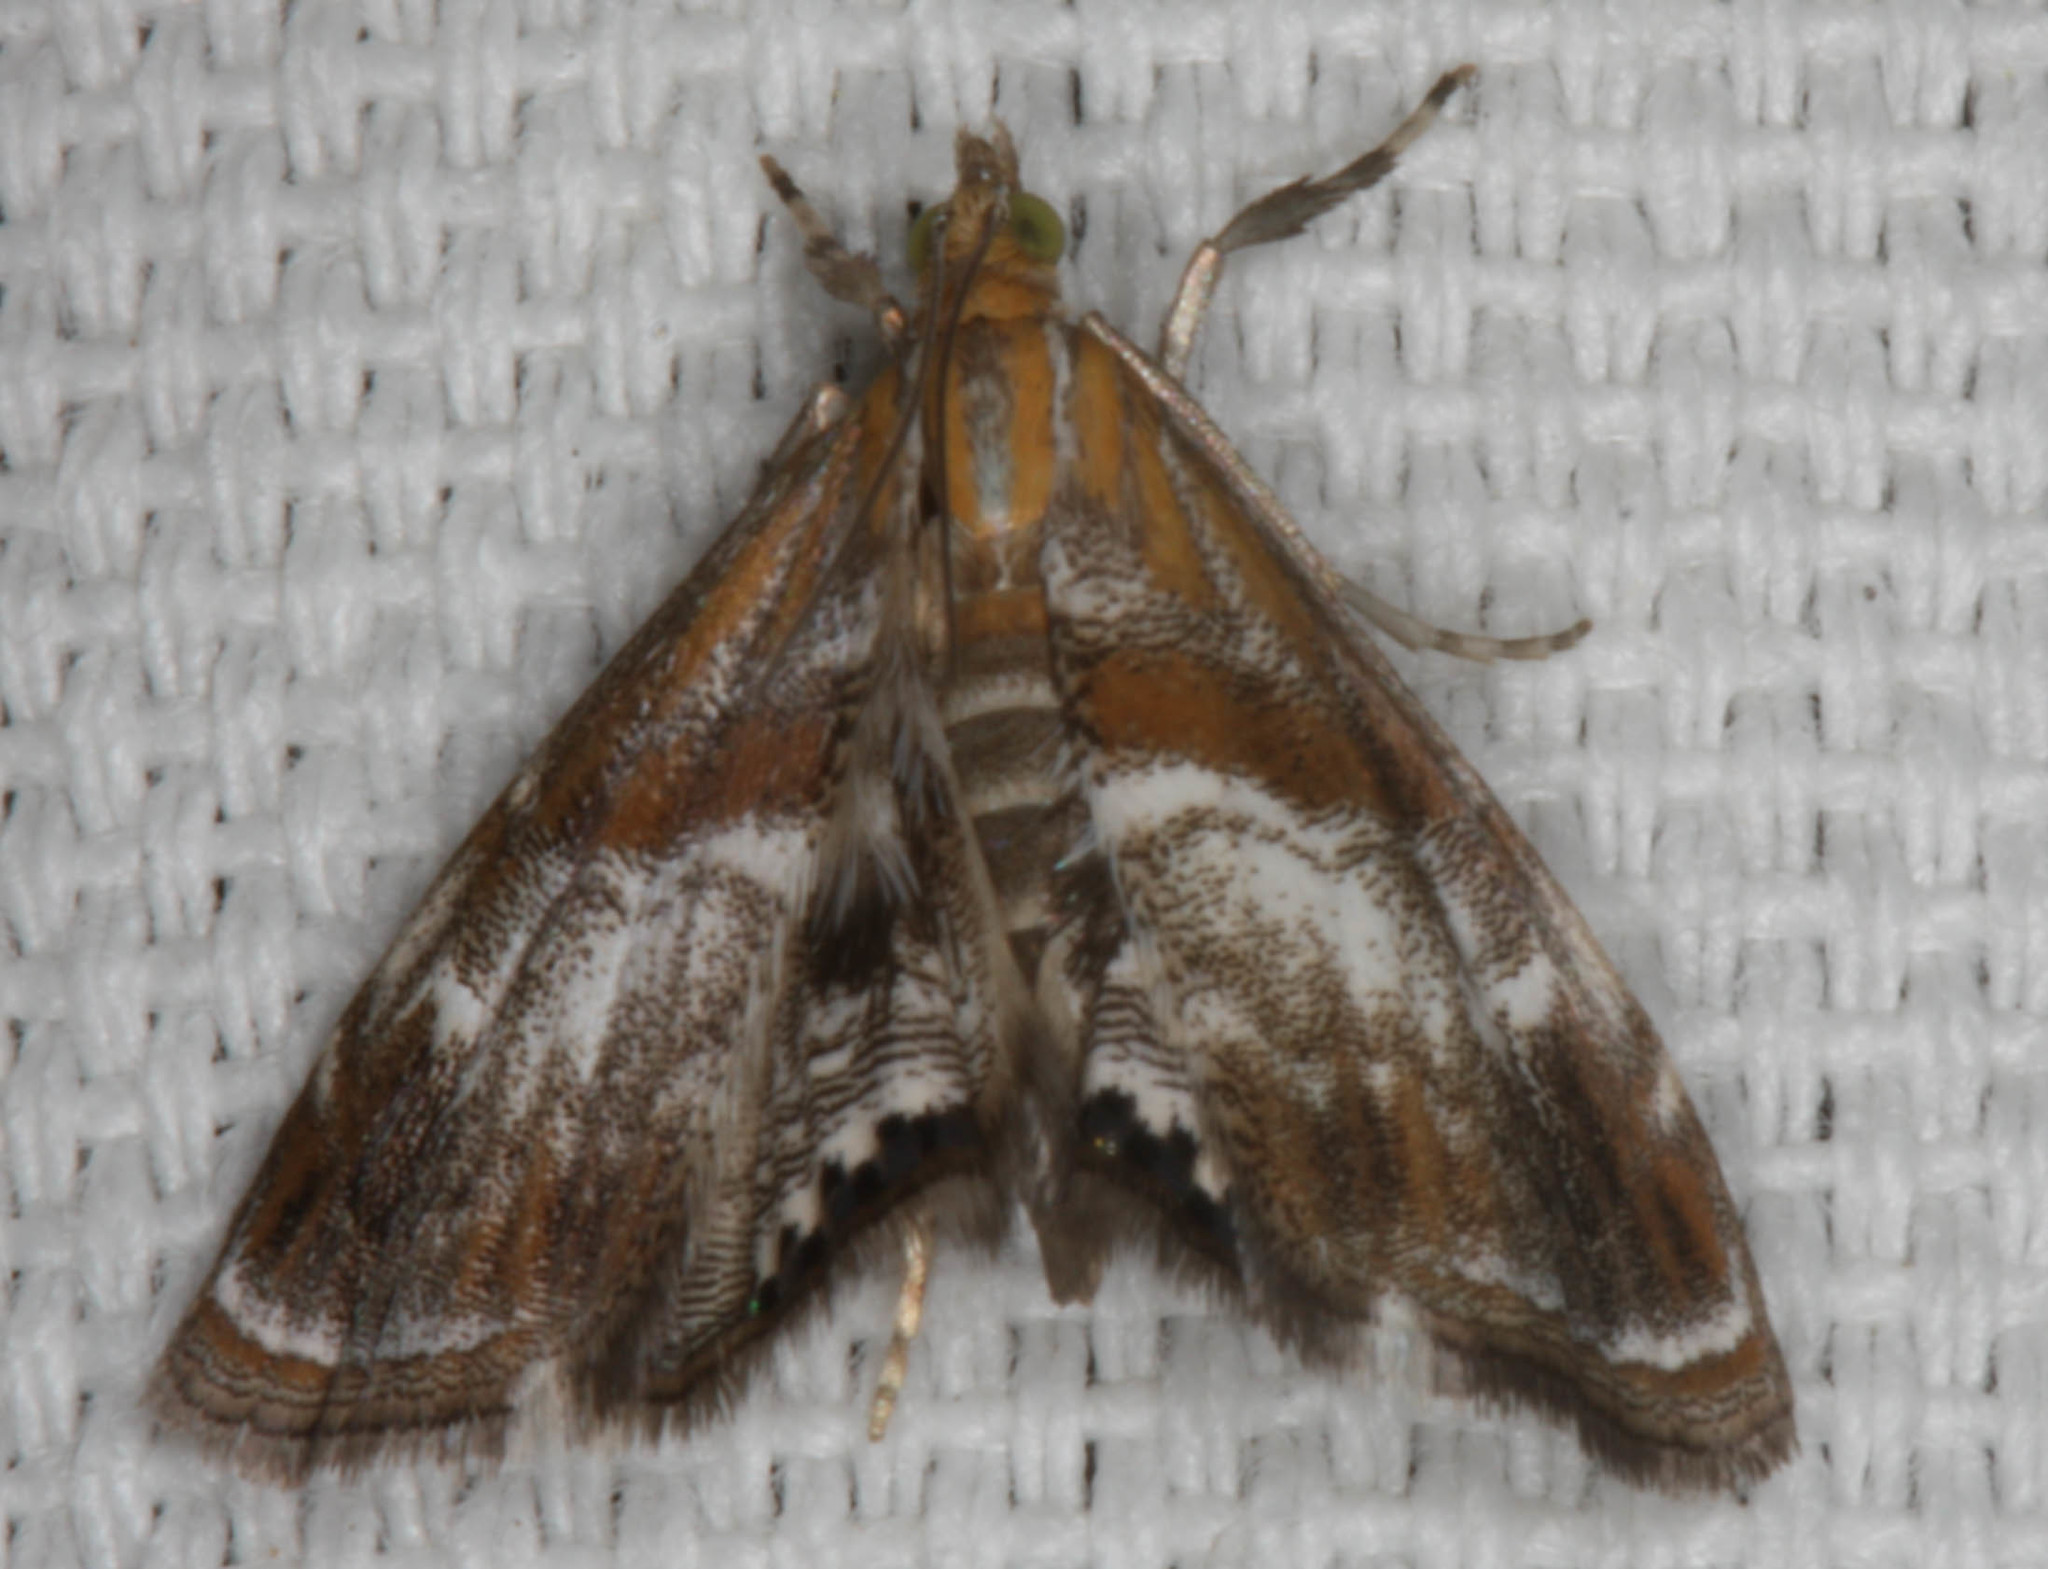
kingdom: Animalia
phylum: Arthropoda
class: Insecta
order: Lepidoptera
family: Crambidae
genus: Dicymolomia
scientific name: Dicymolomia metalliferalis
